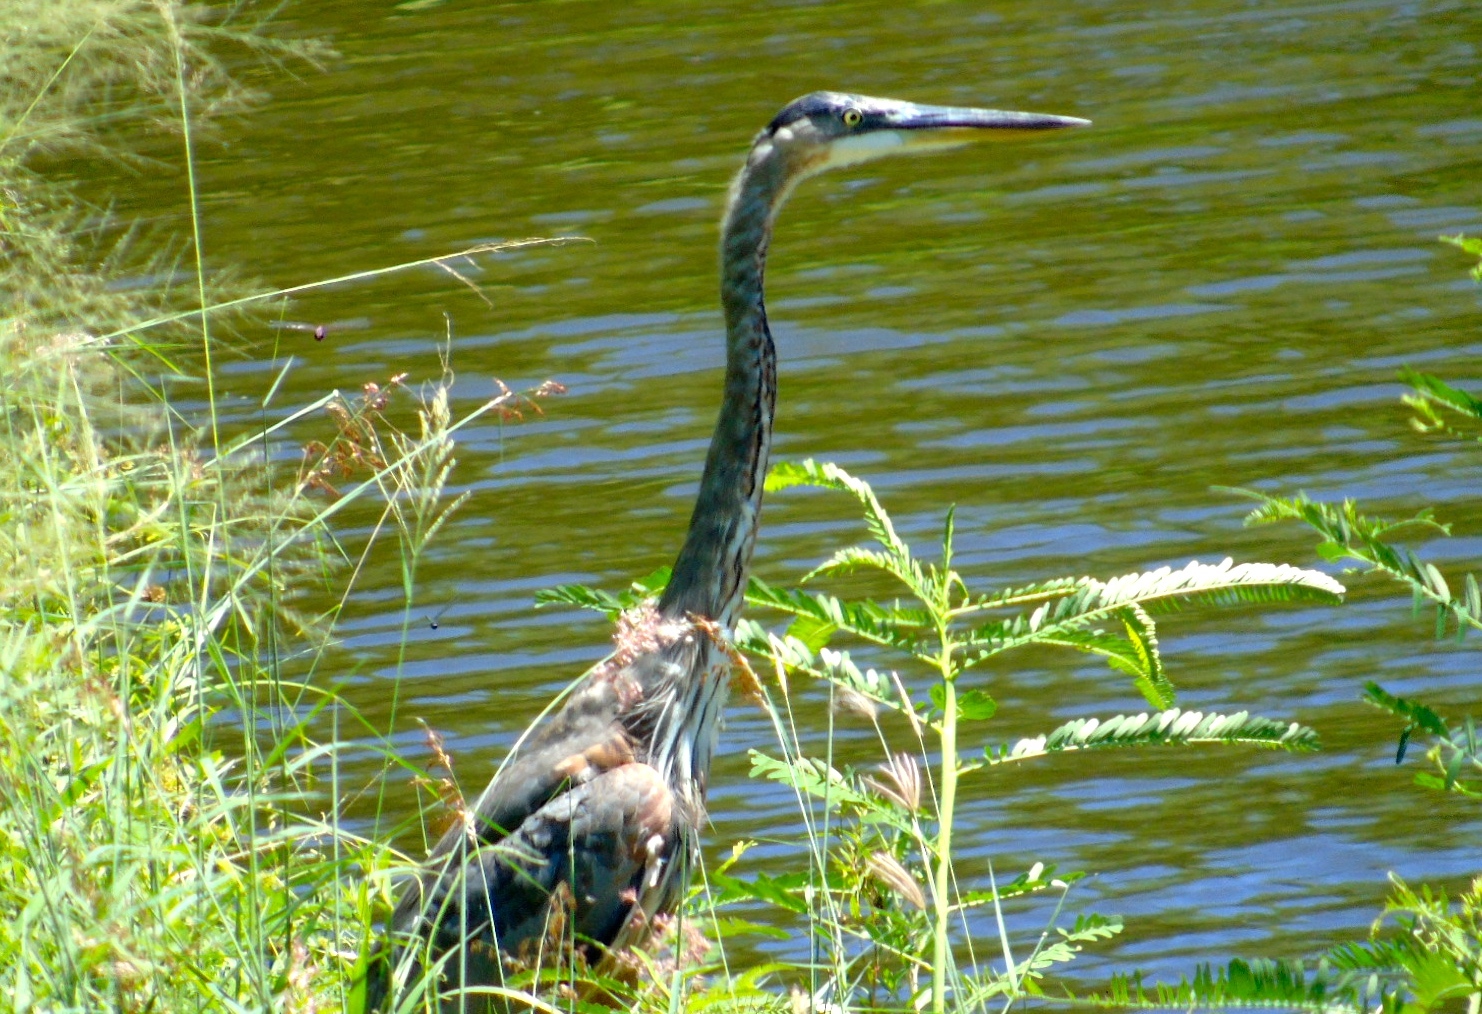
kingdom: Animalia
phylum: Chordata
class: Aves
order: Pelecaniformes
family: Ardeidae
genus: Ardea
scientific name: Ardea herodias
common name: Great blue heron
